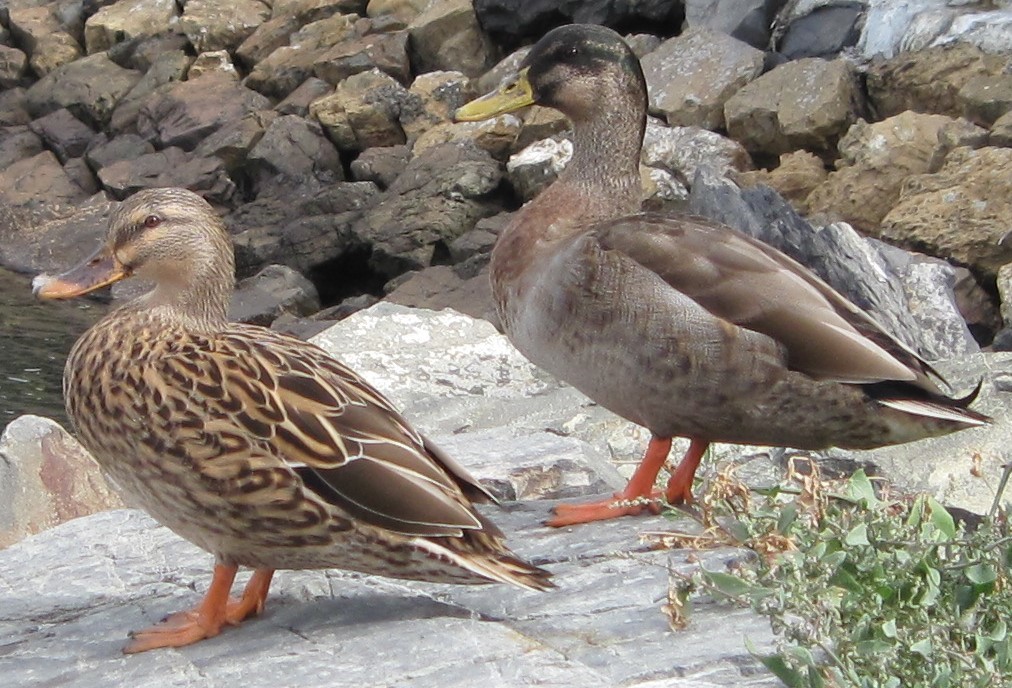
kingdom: Animalia
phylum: Chordata
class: Aves
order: Anseriformes
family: Anatidae
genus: Anas
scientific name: Anas
